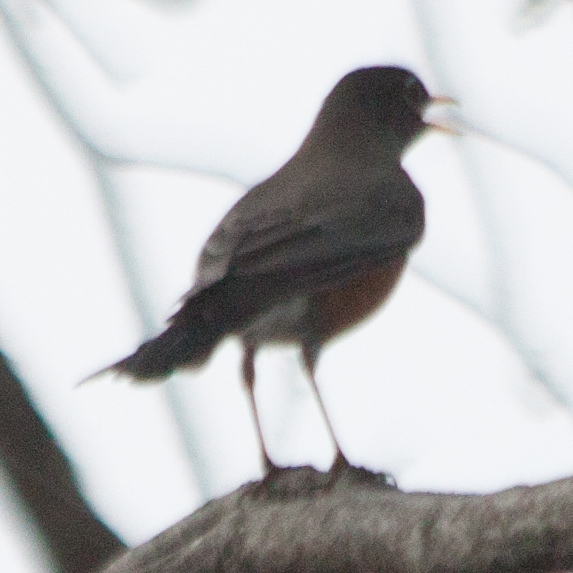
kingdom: Animalia
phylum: Chordata
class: Aves
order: Passeriformes
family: Turdidae
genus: Turdus
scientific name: Turdus migratorius
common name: American robin
